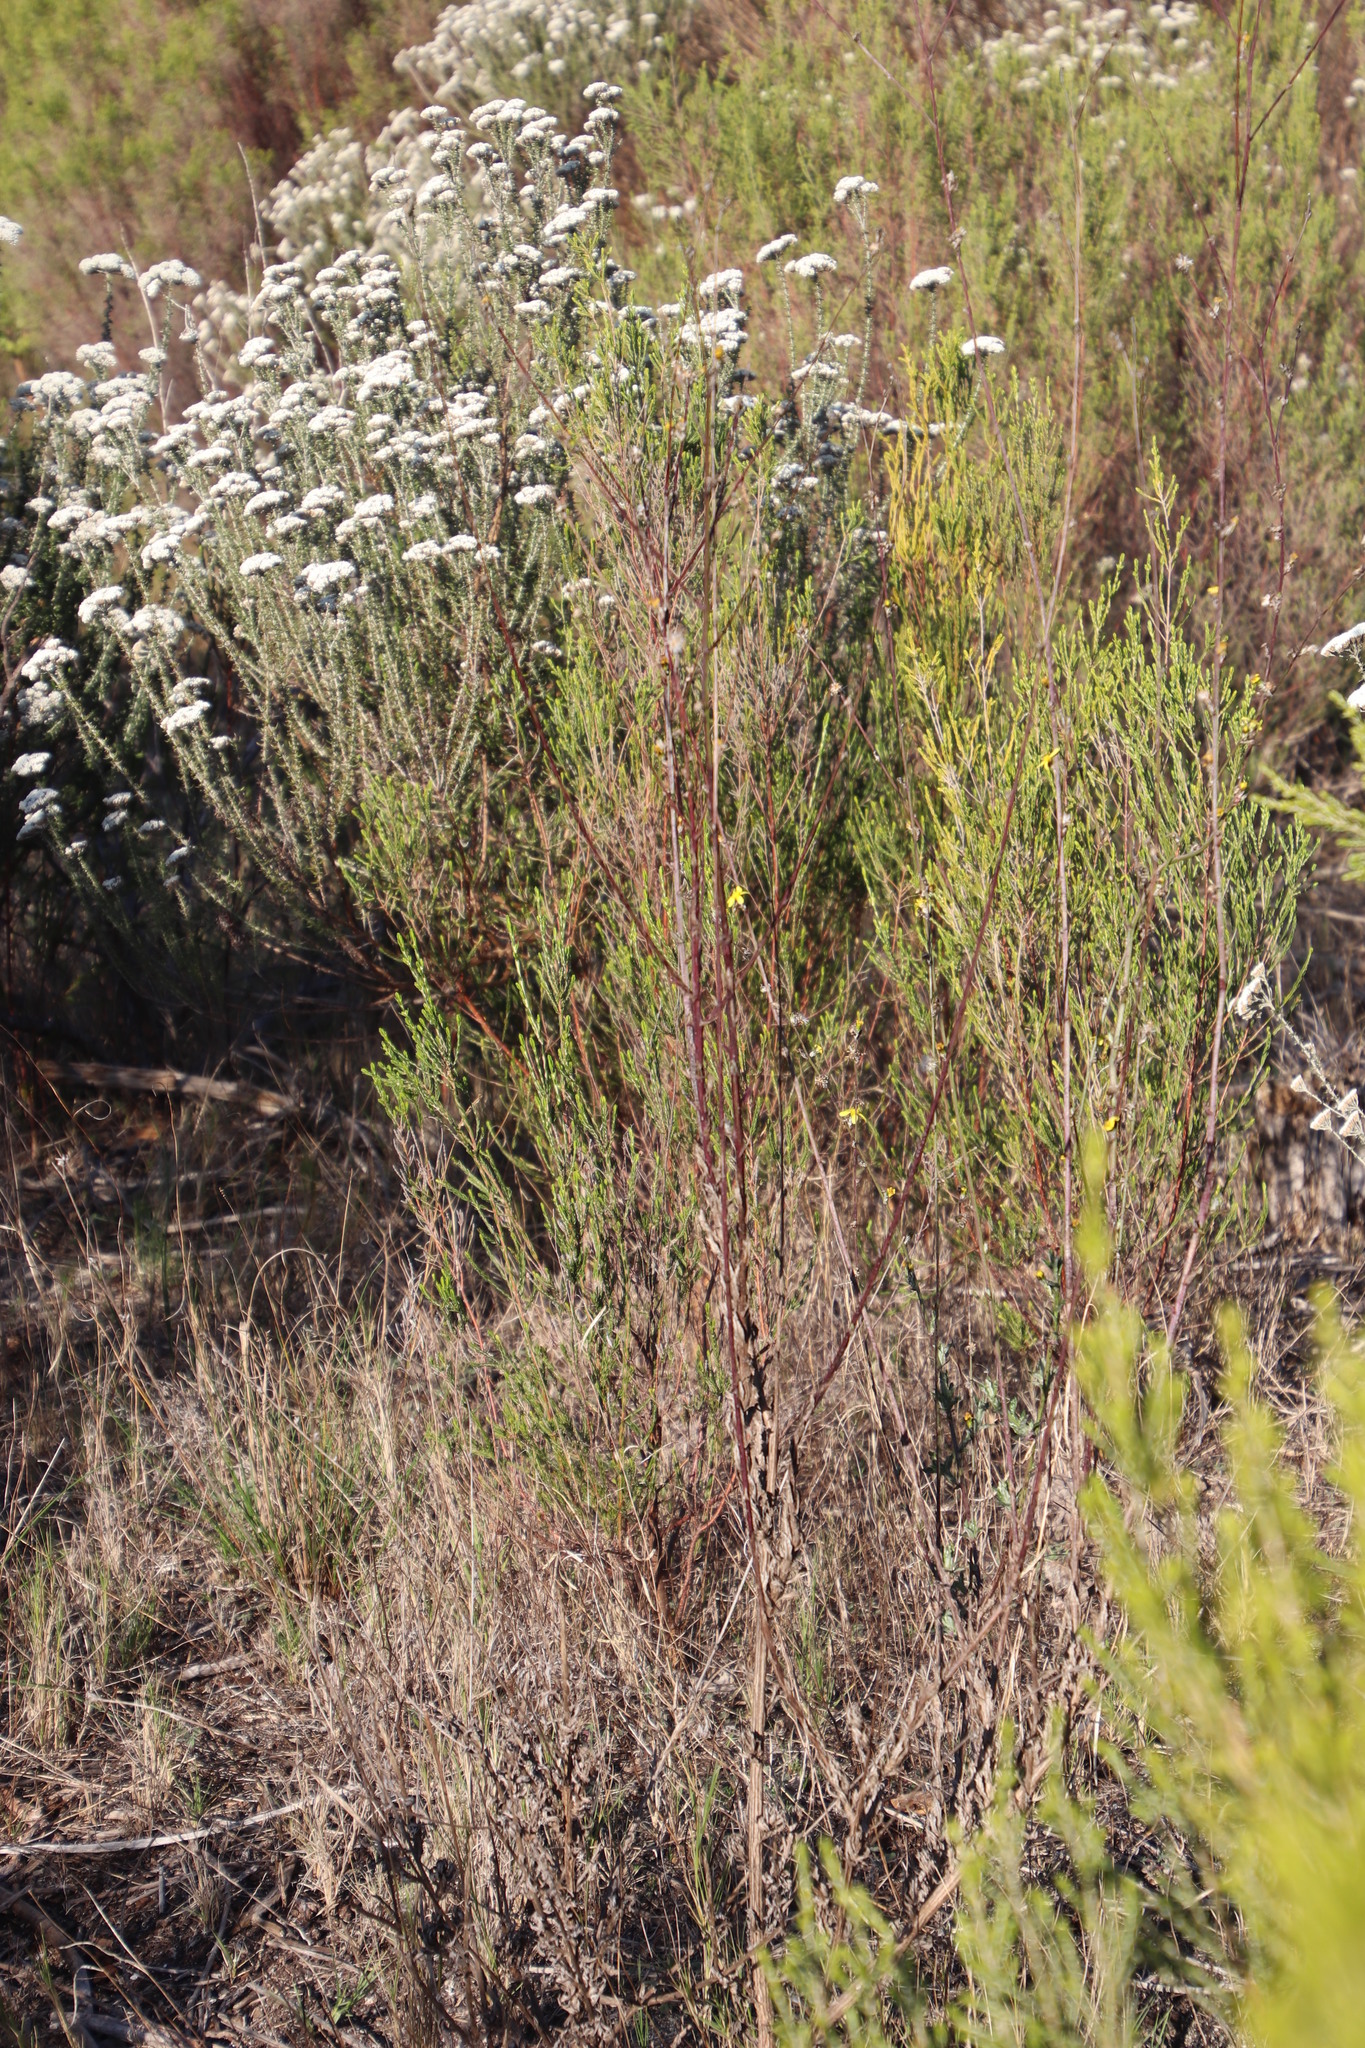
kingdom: Plantae
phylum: Tracheophyta
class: Magnoliopsida
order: Asterales
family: Asteraceae
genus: Senecio
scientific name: Senecio pubigerus
